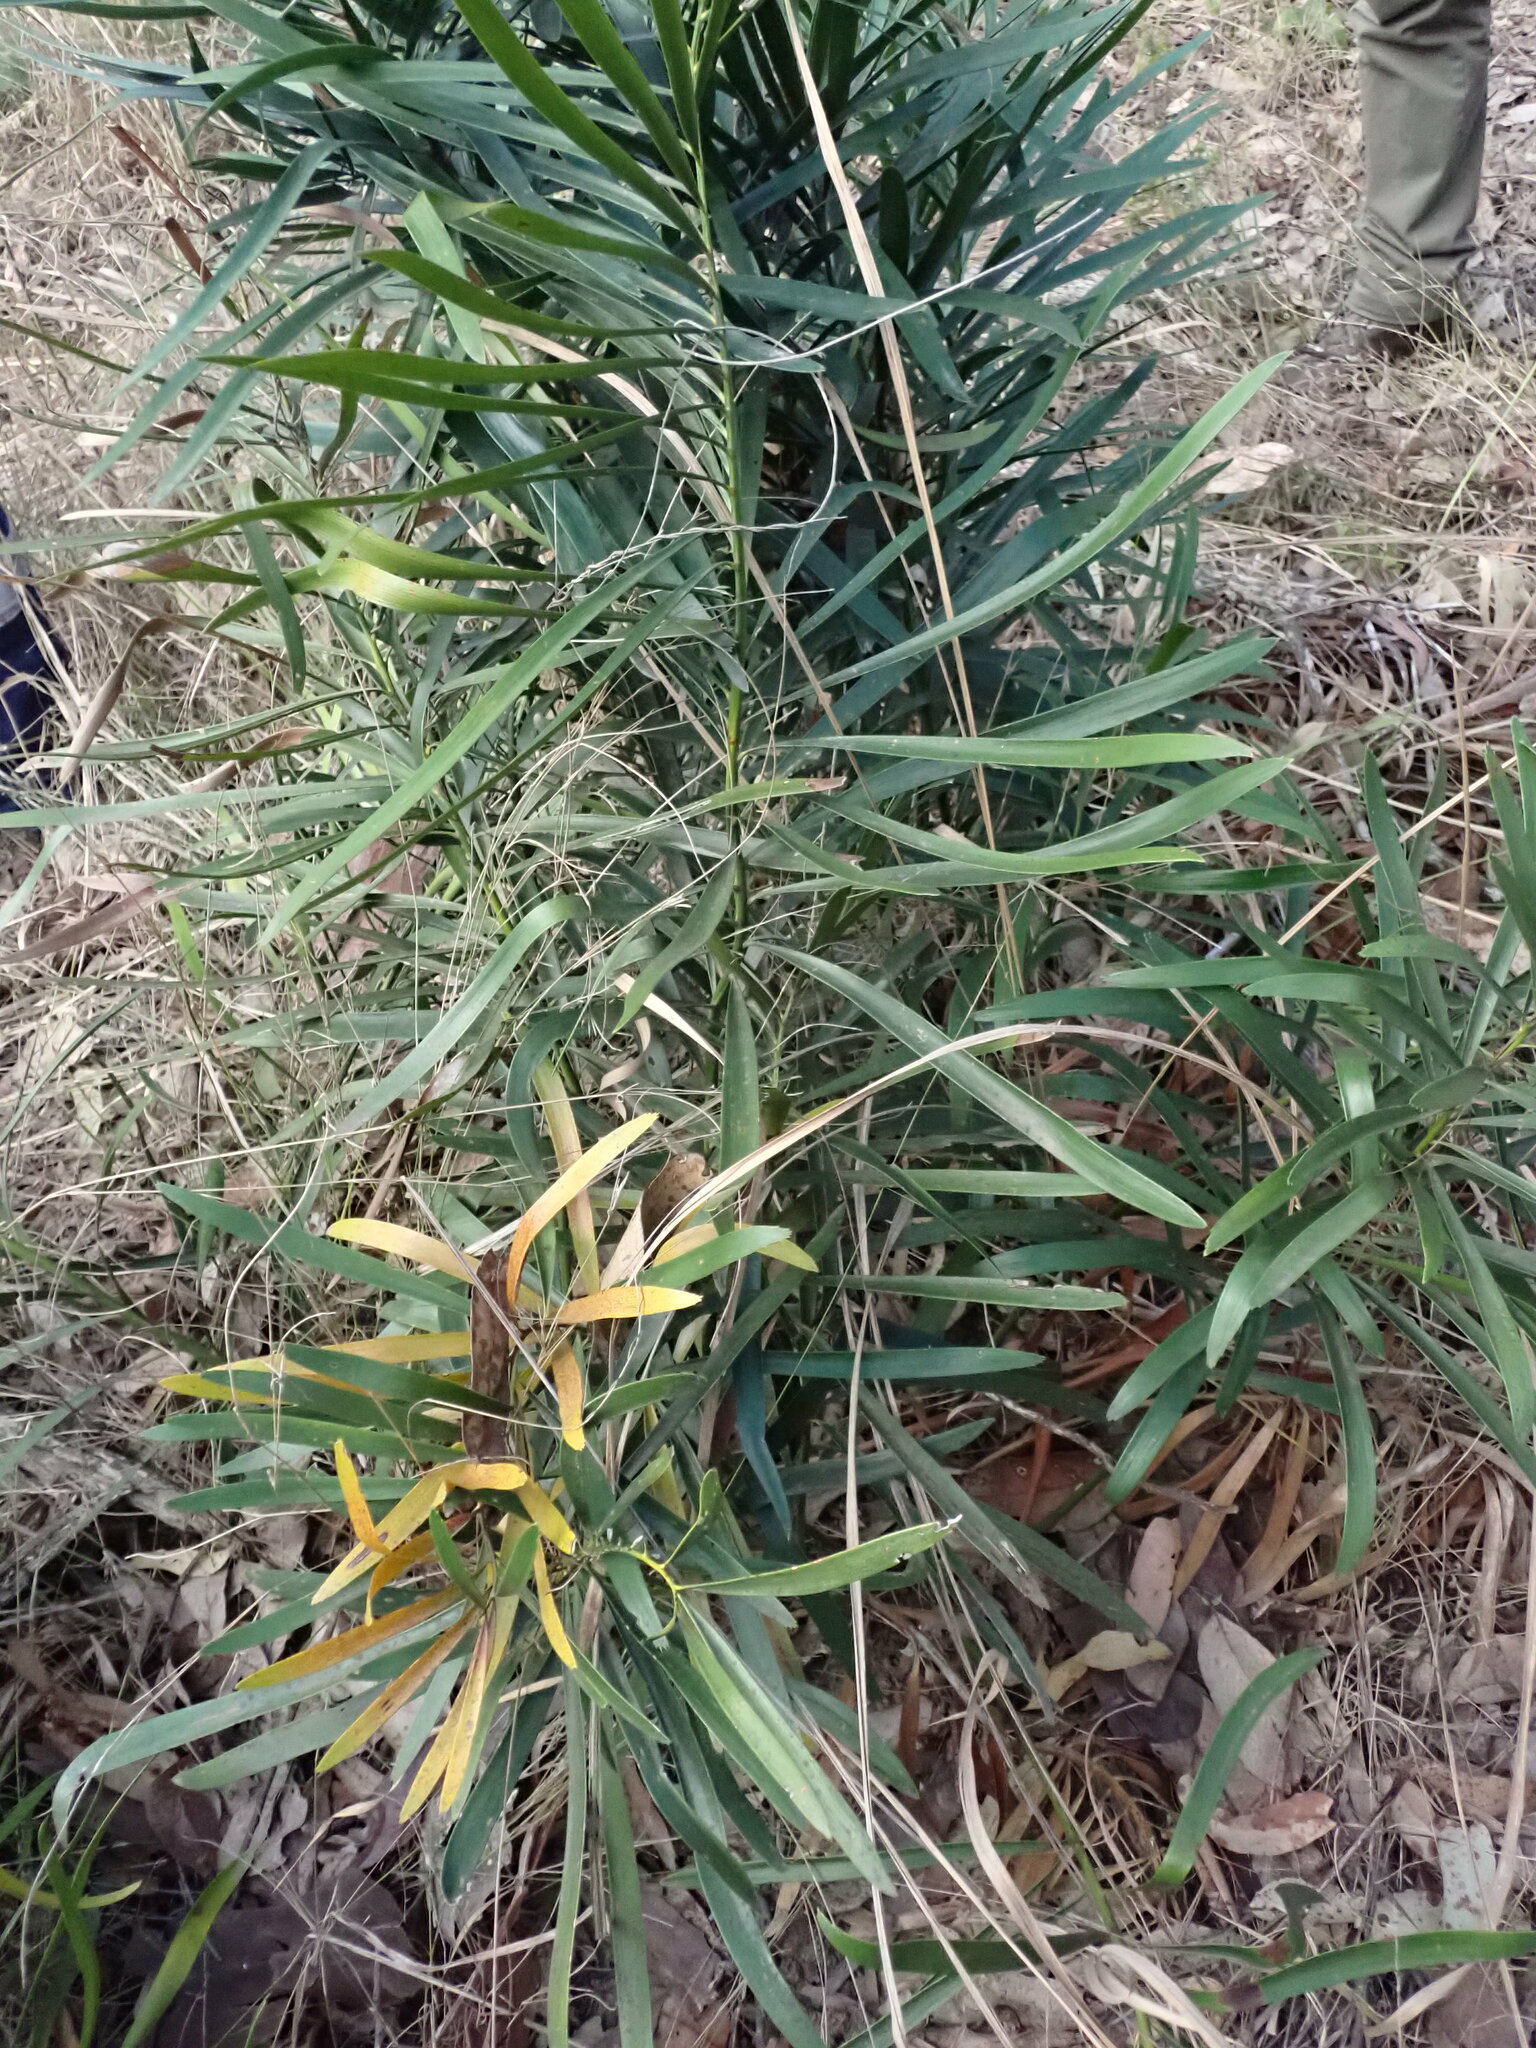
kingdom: Plantae
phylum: Tracheophyta
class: Cycadopsida
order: Cycadales
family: Zamiaceae
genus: Macrozamia
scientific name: Macrozamia fawcettii
